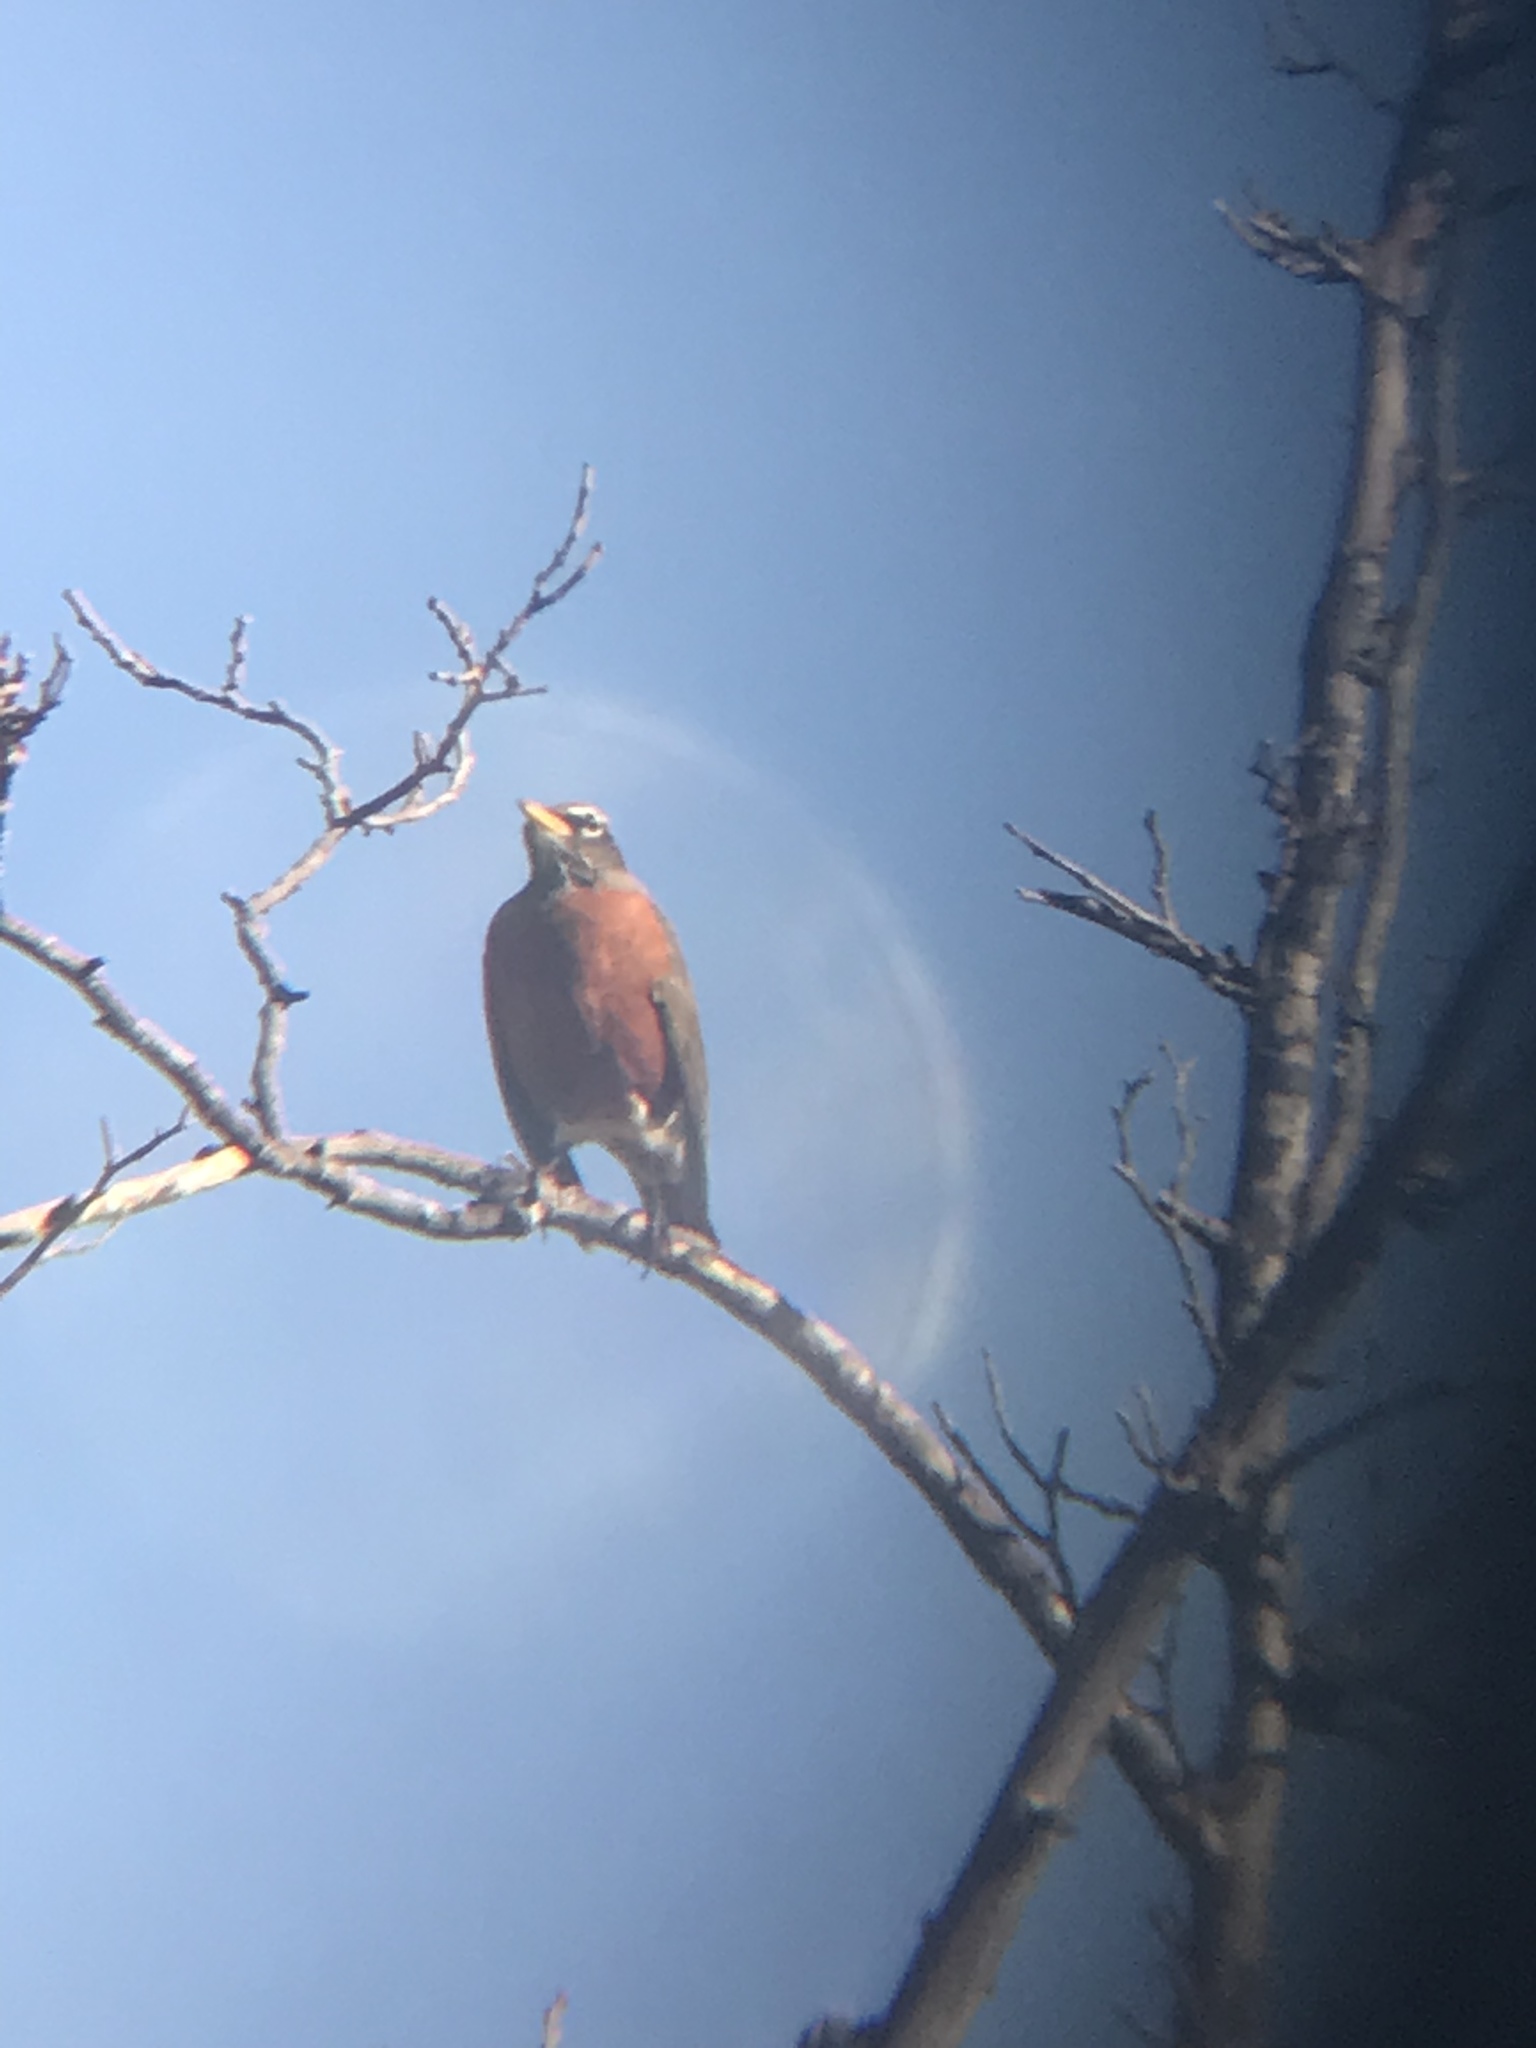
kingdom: Animalia
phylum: Chordata
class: Aves
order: Passeriformes
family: Turdidae
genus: Turdus
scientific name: Turdus migratorius
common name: American robin
